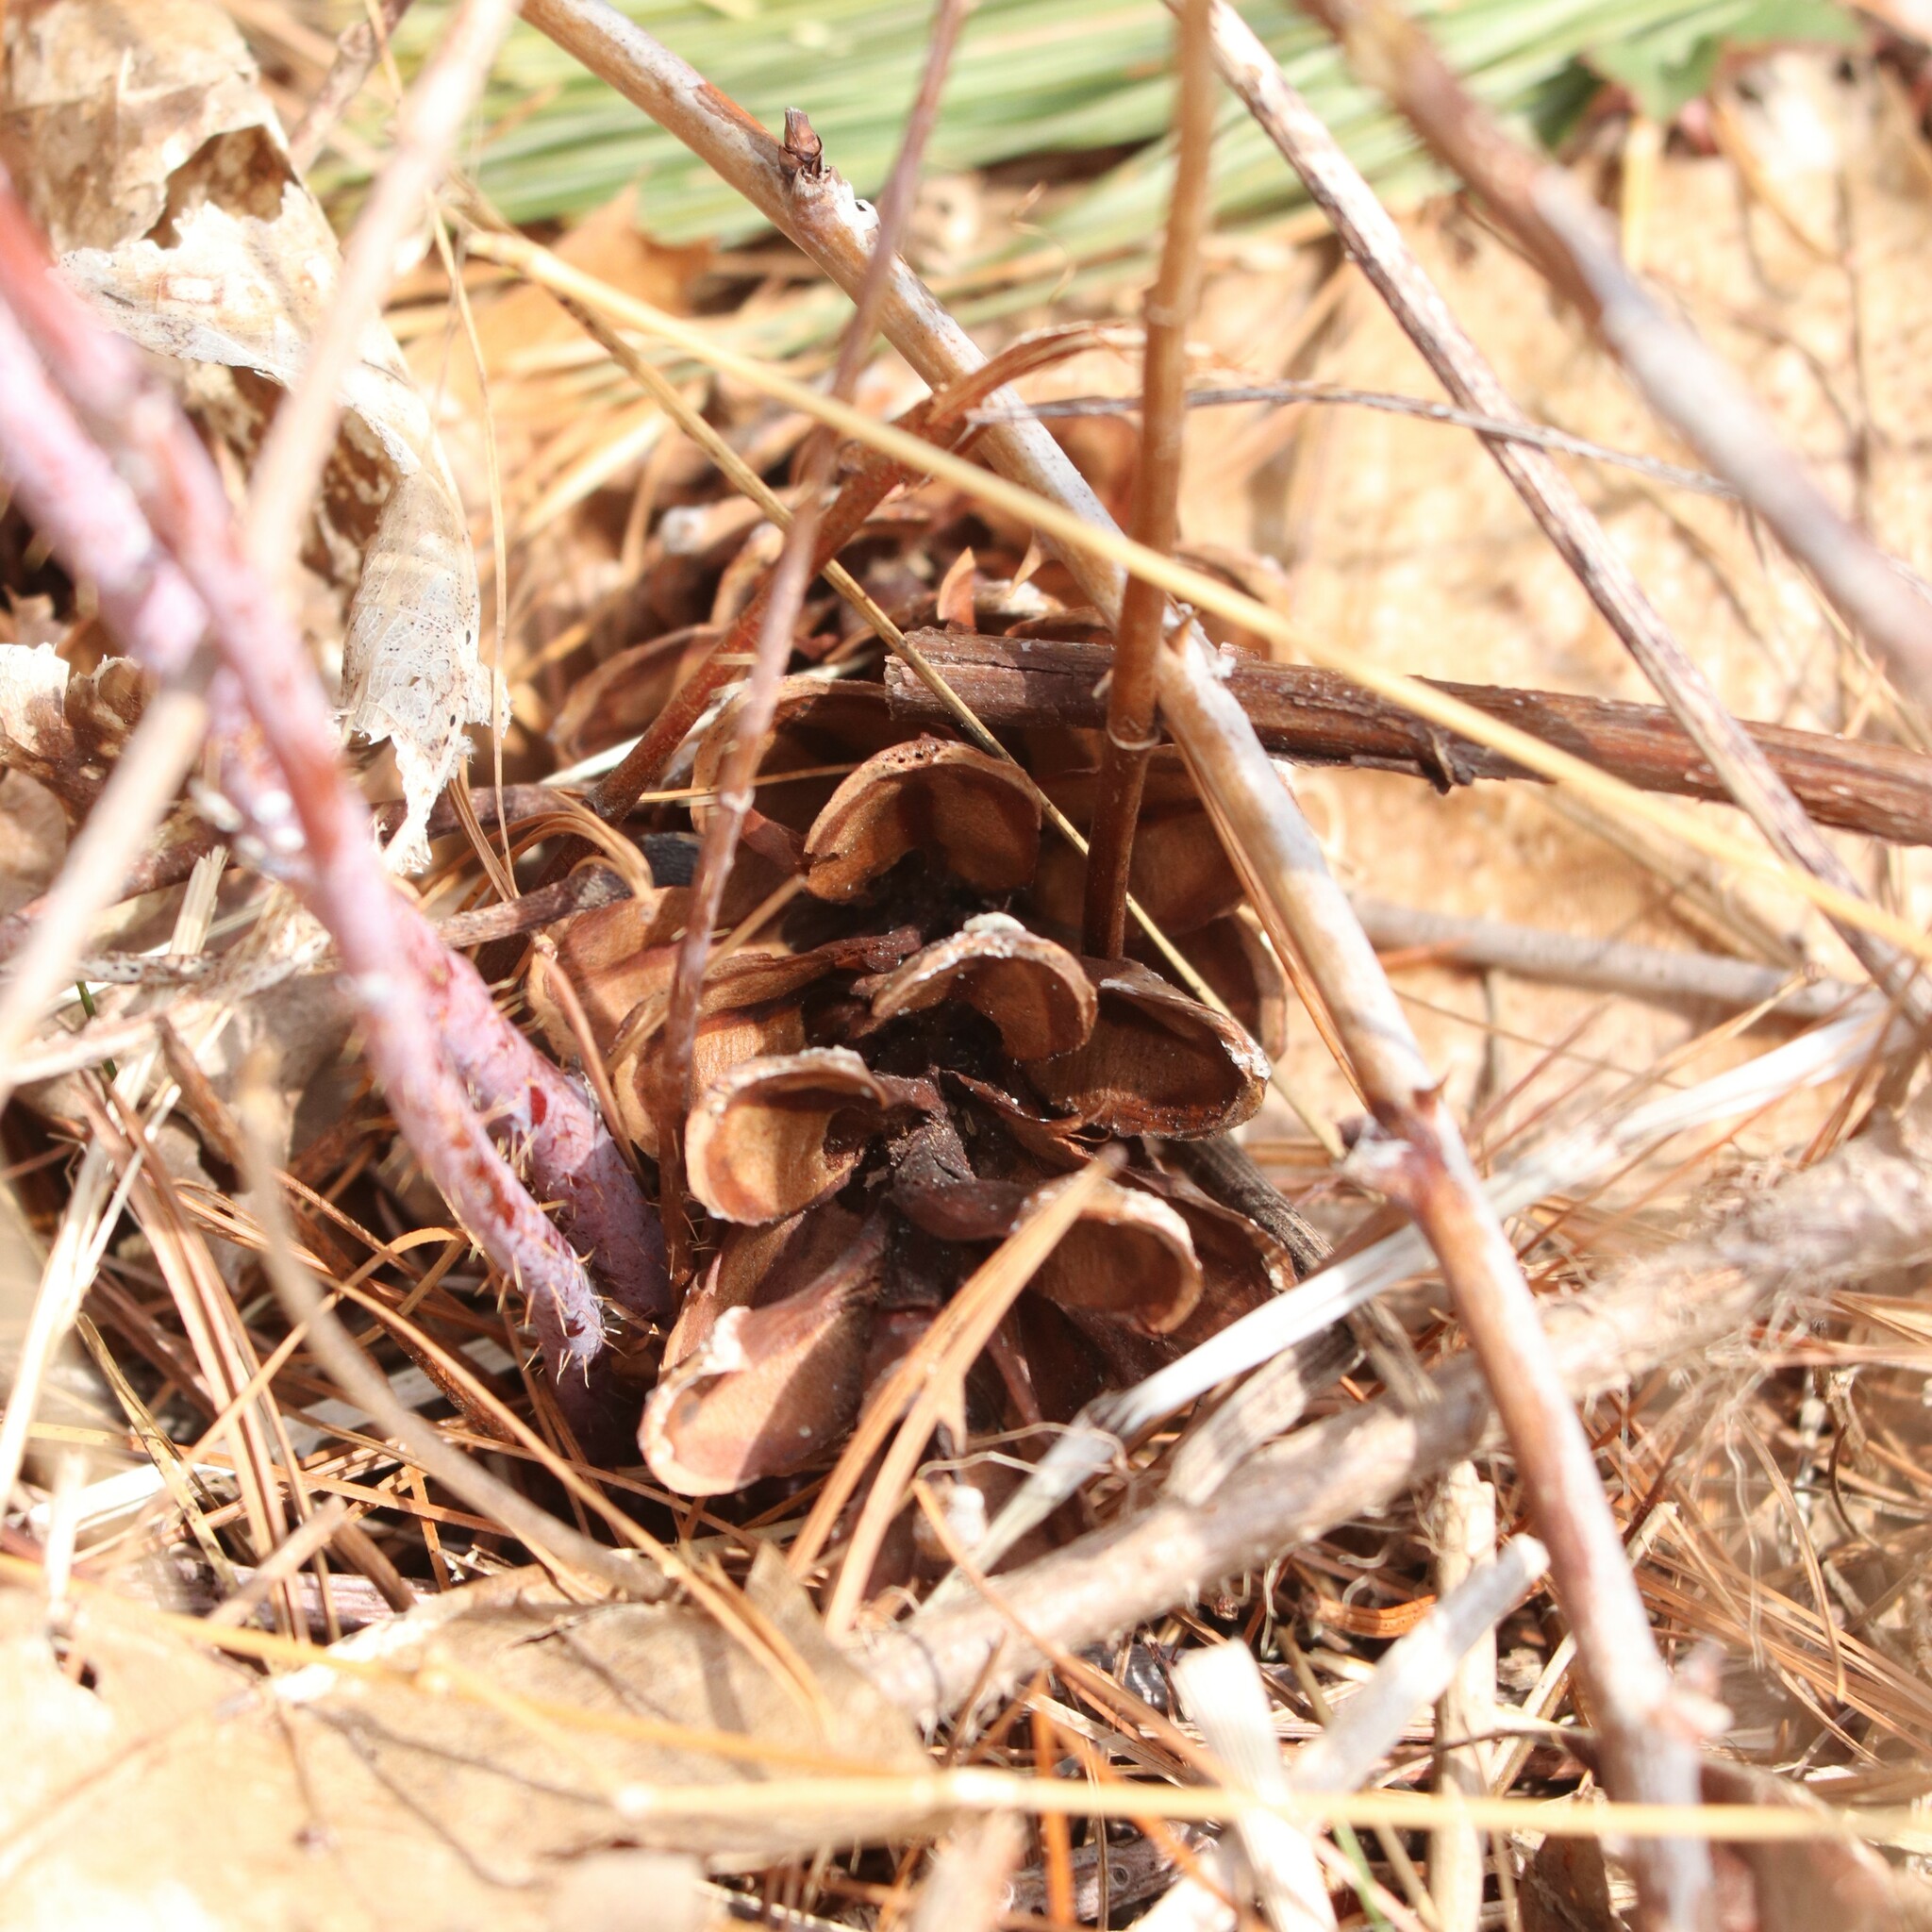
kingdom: Plantae
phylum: Tracheophyta
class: Pinopsida
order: Pinales
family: Pinaceae
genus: Pinus
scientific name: Pinus strobus
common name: Weymouth pine
